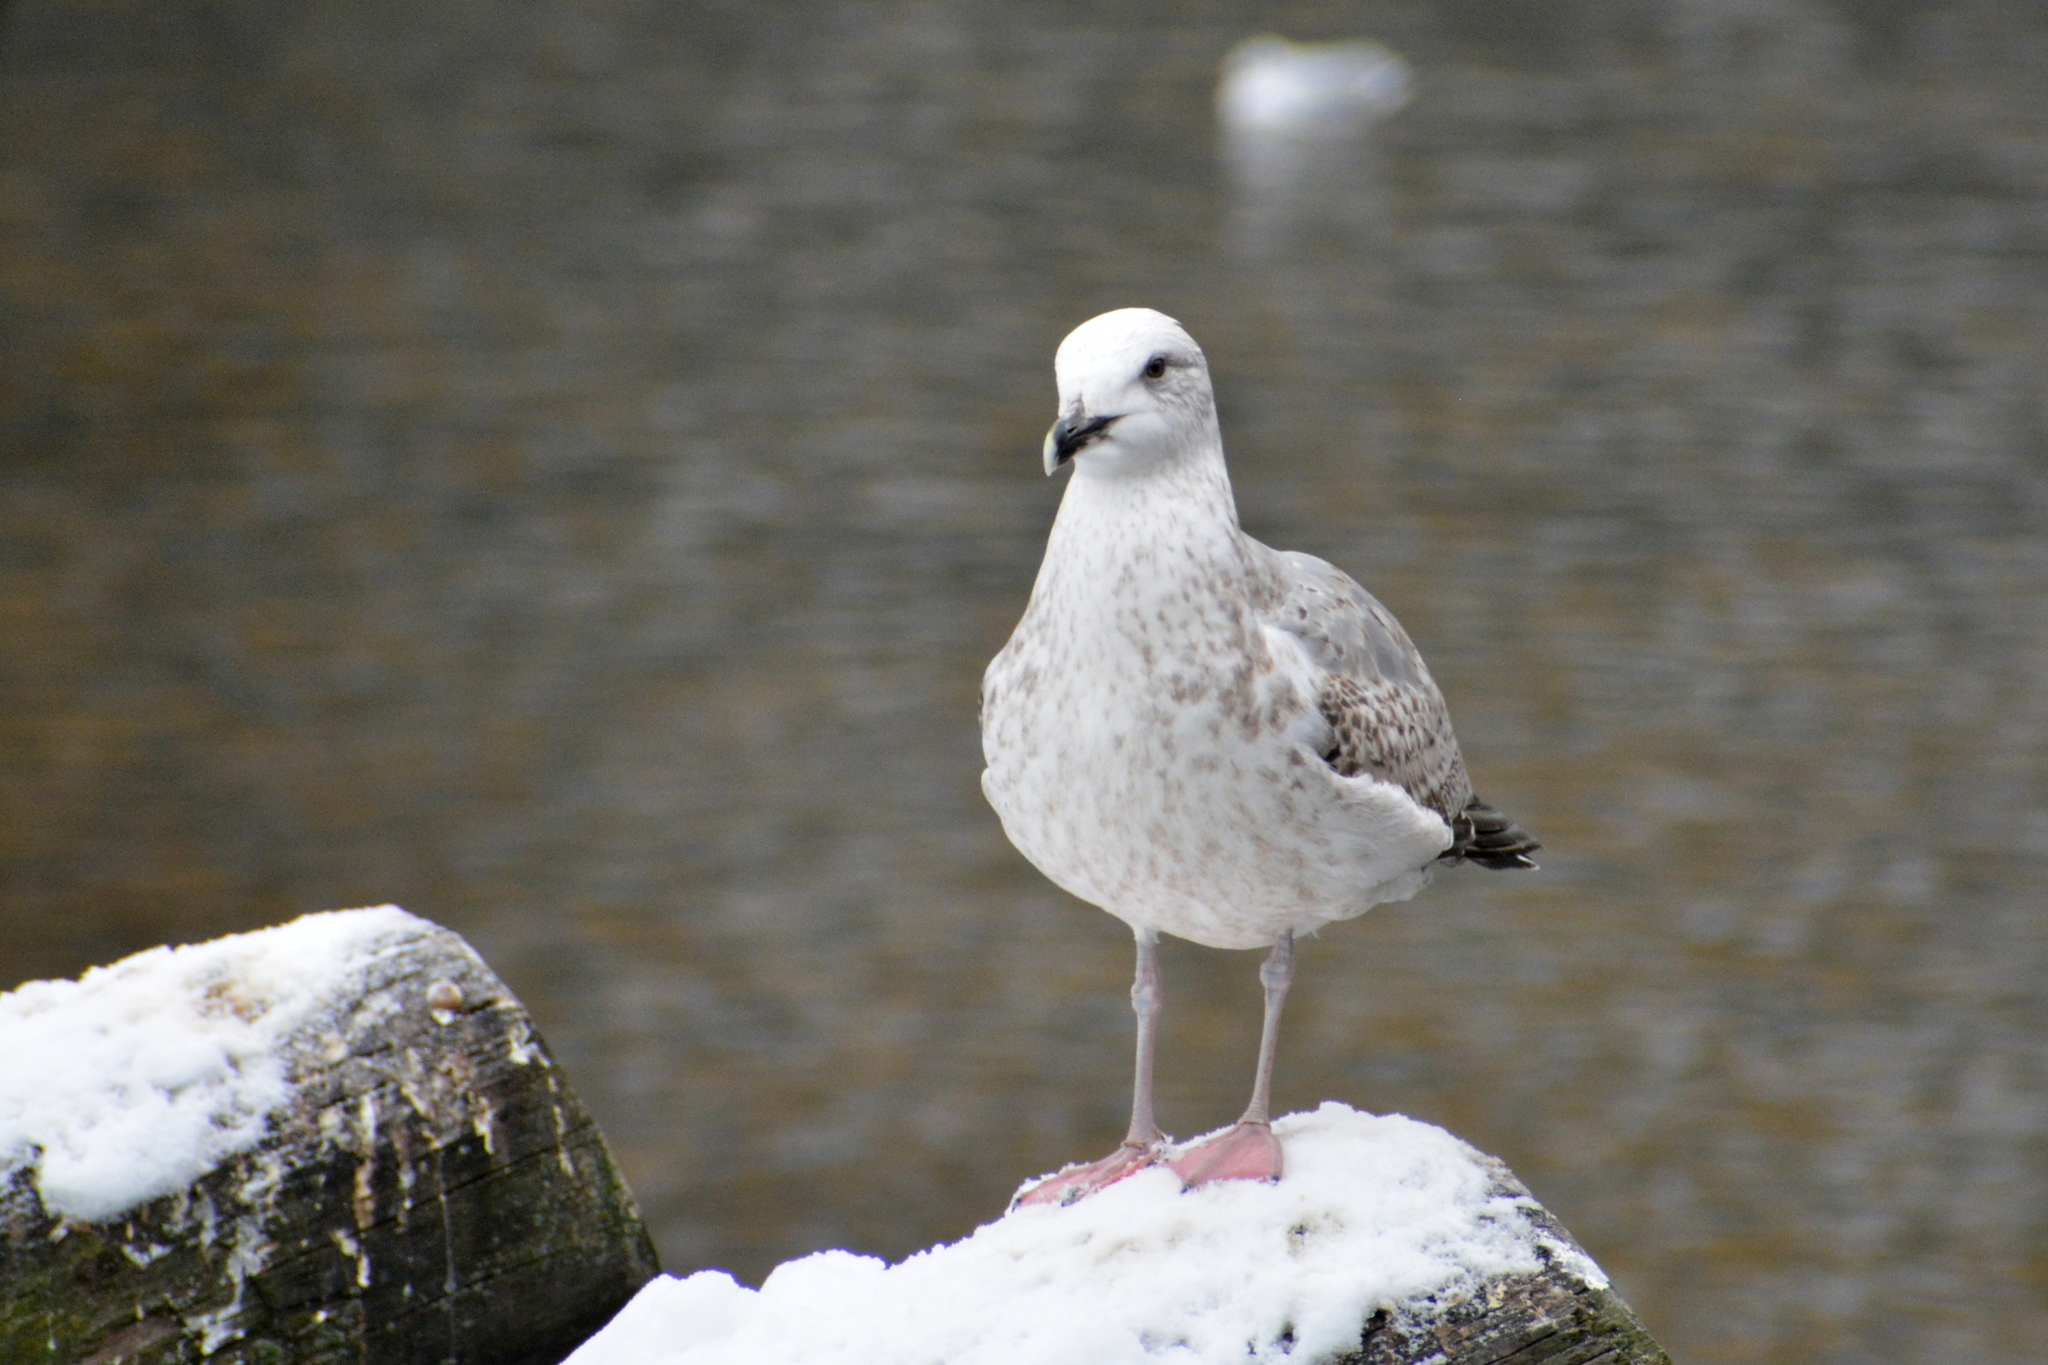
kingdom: Animalia
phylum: Chordata
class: Aves
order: Charadriiformes
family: Laridae
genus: Larus
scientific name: Larus canus
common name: Mew gull
